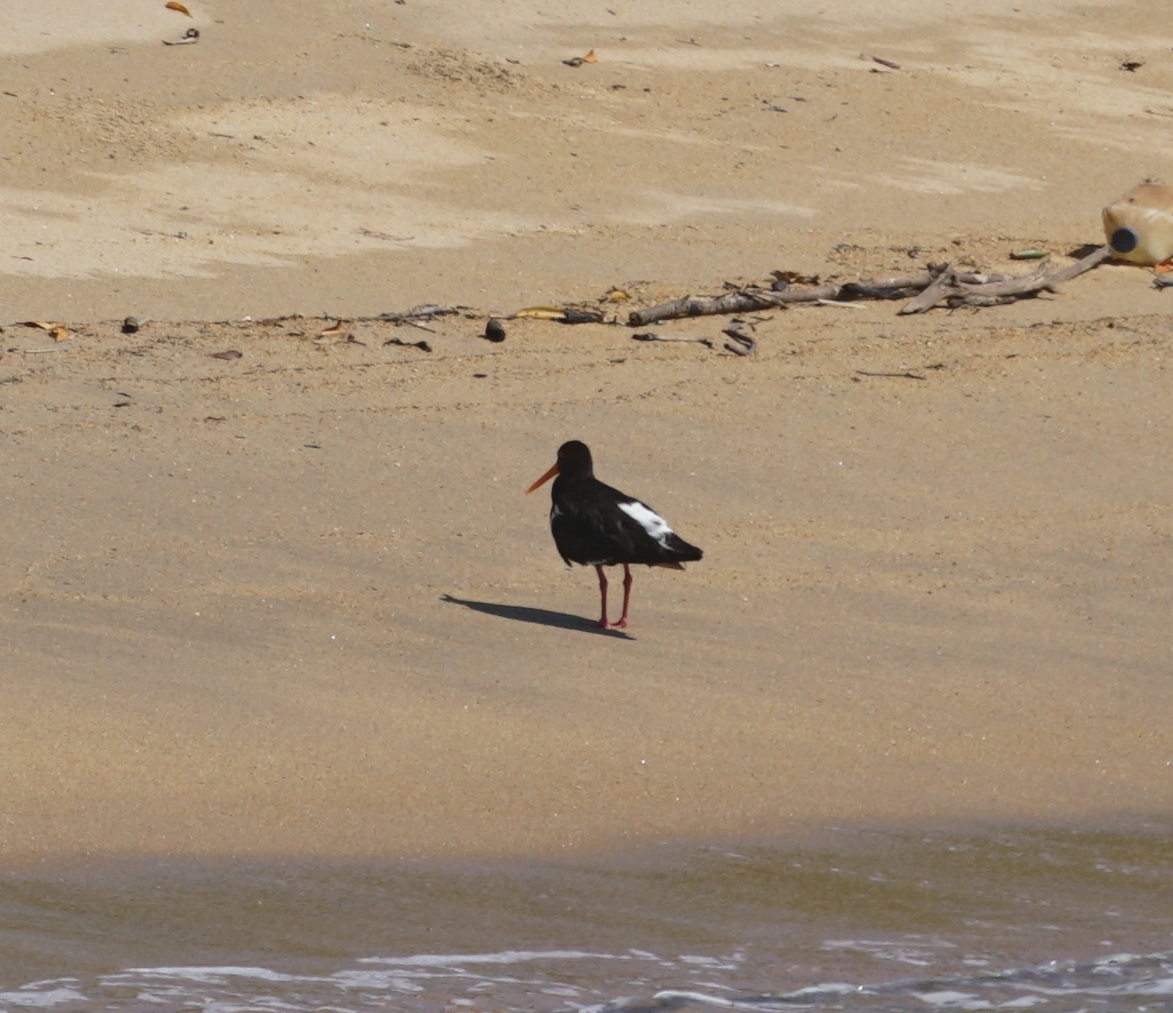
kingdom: Animalia
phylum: Chordata
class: Aves
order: Charadriiformes
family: Haematopodidae
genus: Haematopus
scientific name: Haematopus longirostris
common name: Pied oystercatcher
